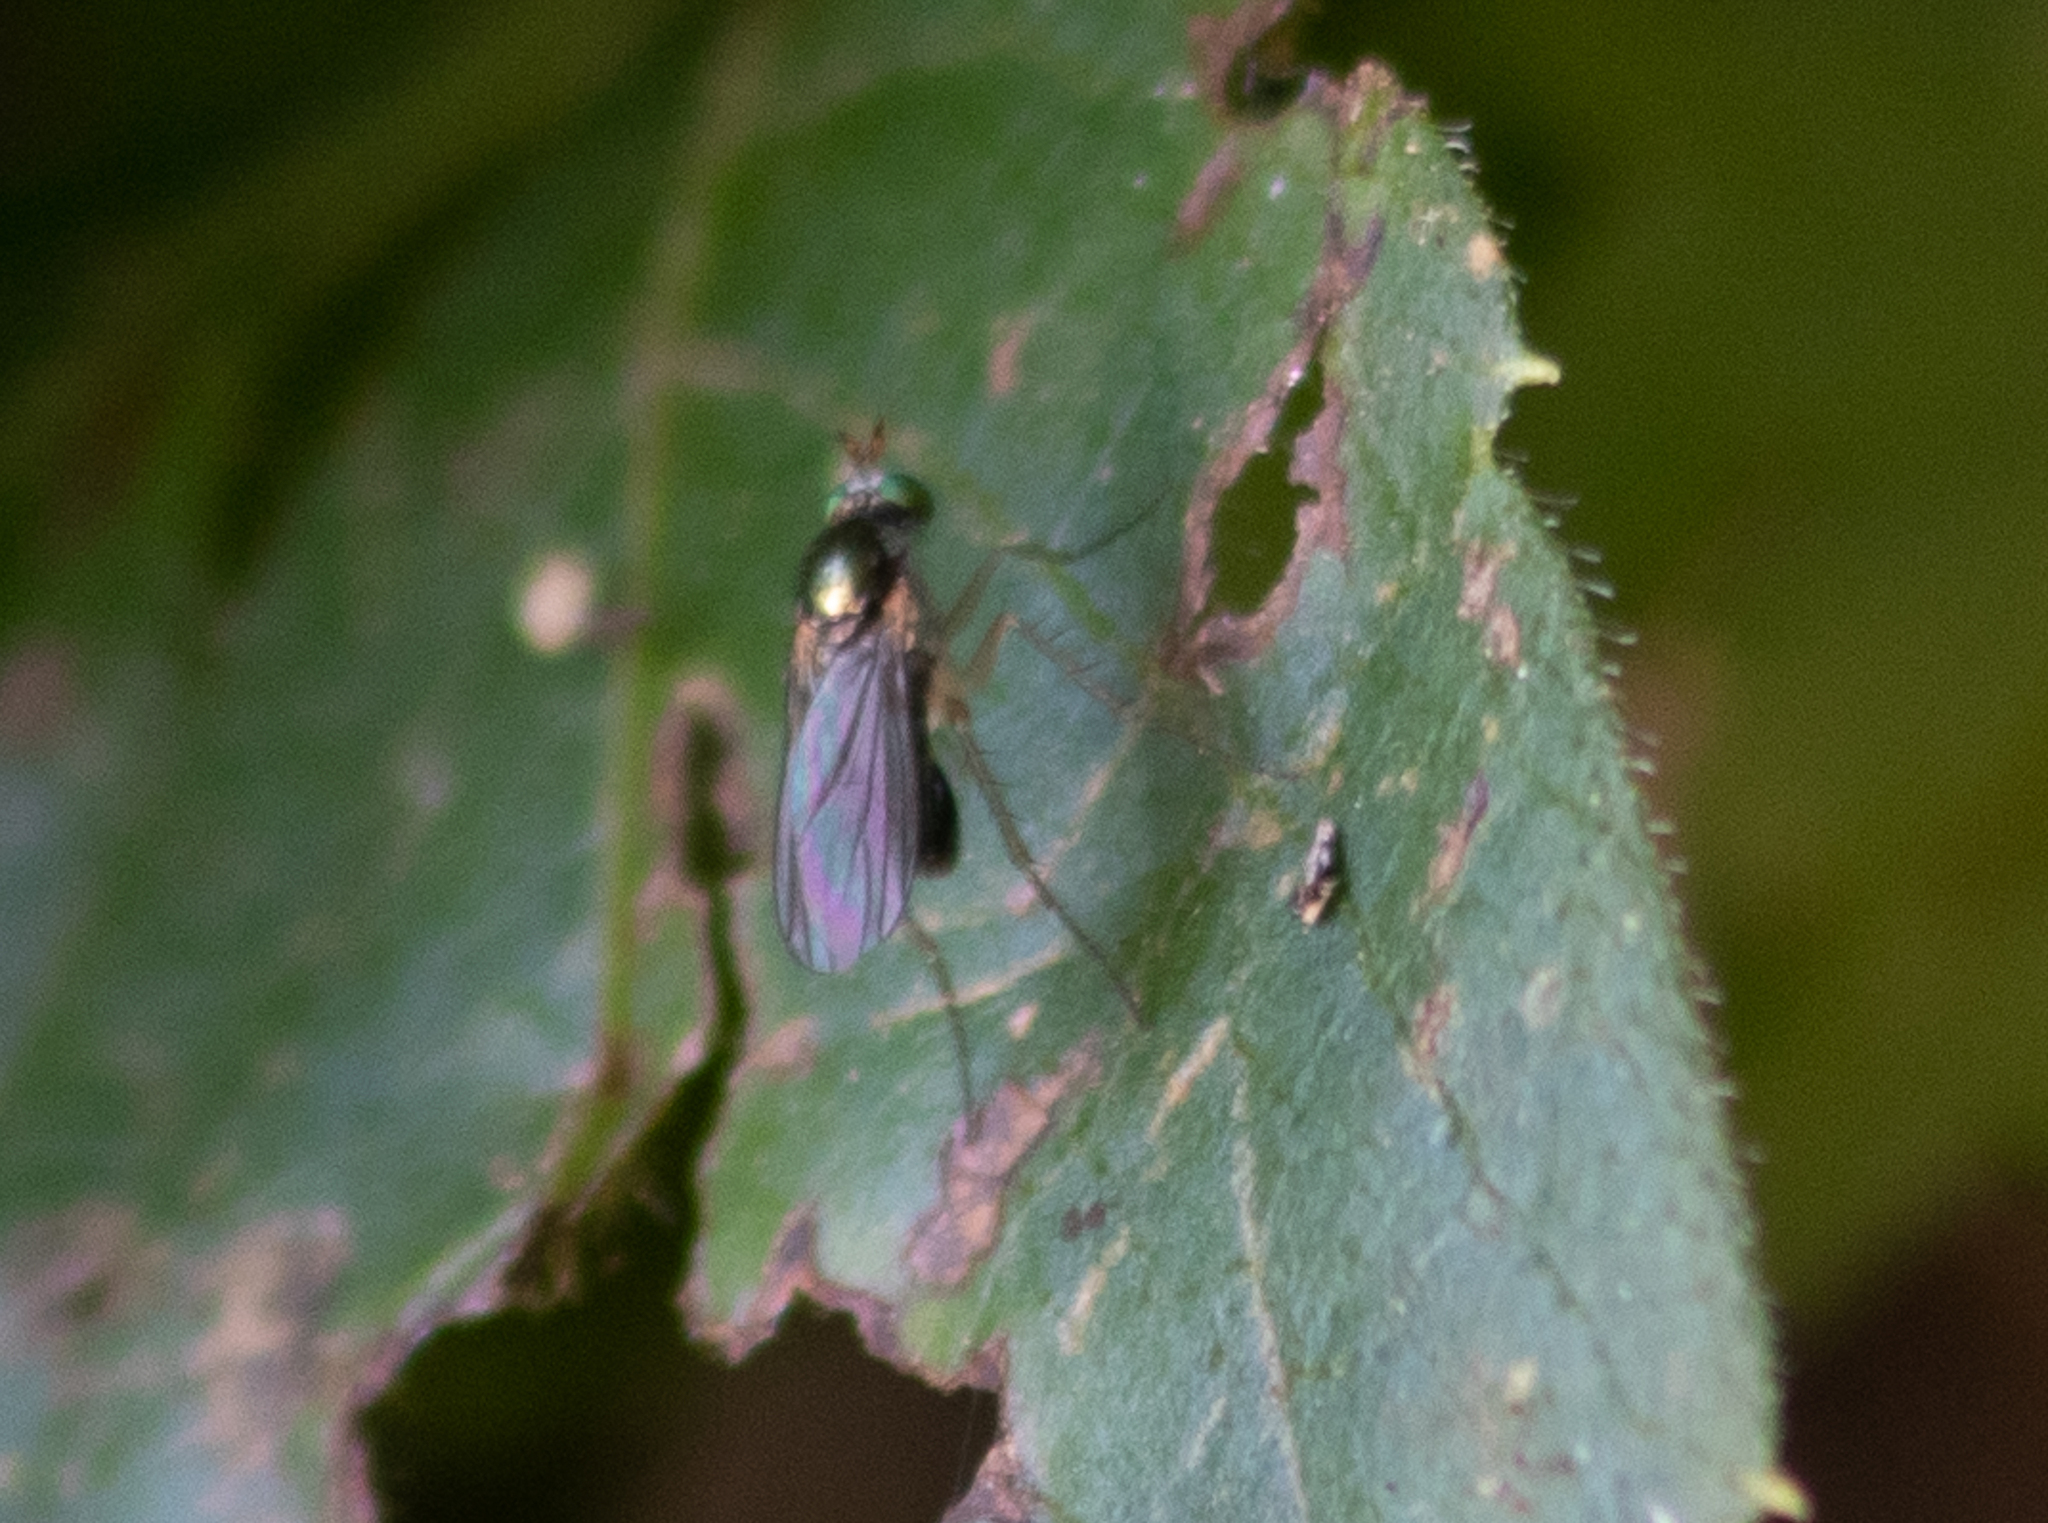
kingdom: Animalia
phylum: Arthropoda
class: Insecta
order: Diptera
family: Dolichopodidae
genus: Gymnopternus
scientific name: Gymnopternus
